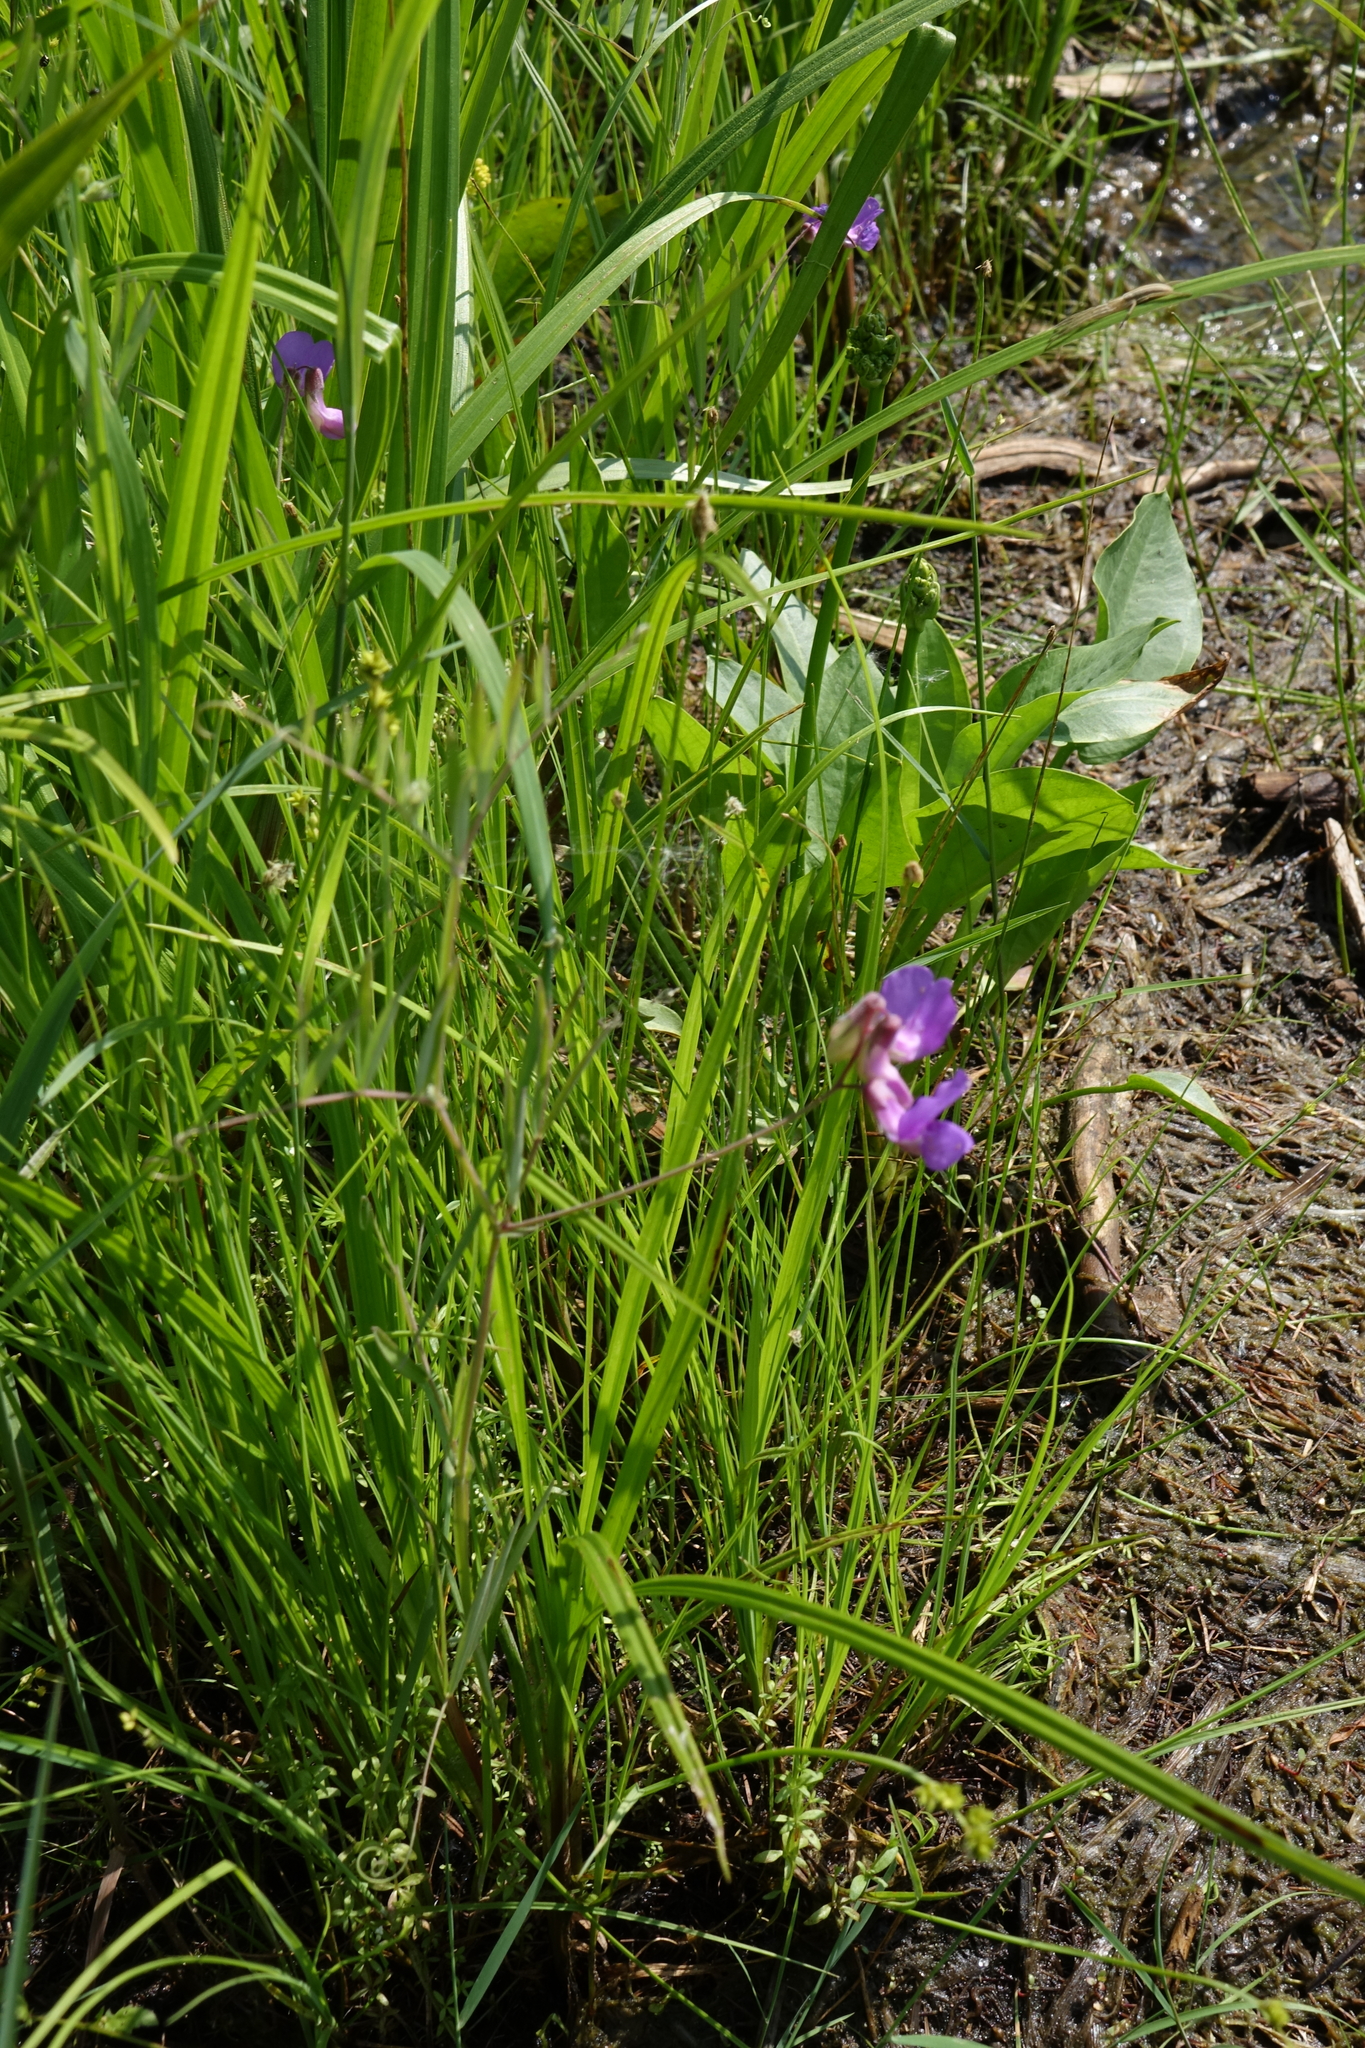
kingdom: Plantae
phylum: Tracheophyta
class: Magnoliopsida
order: Fabales
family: Fabaceae
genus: Lathyrus
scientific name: Lathyrus palustris
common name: Marsh pea
